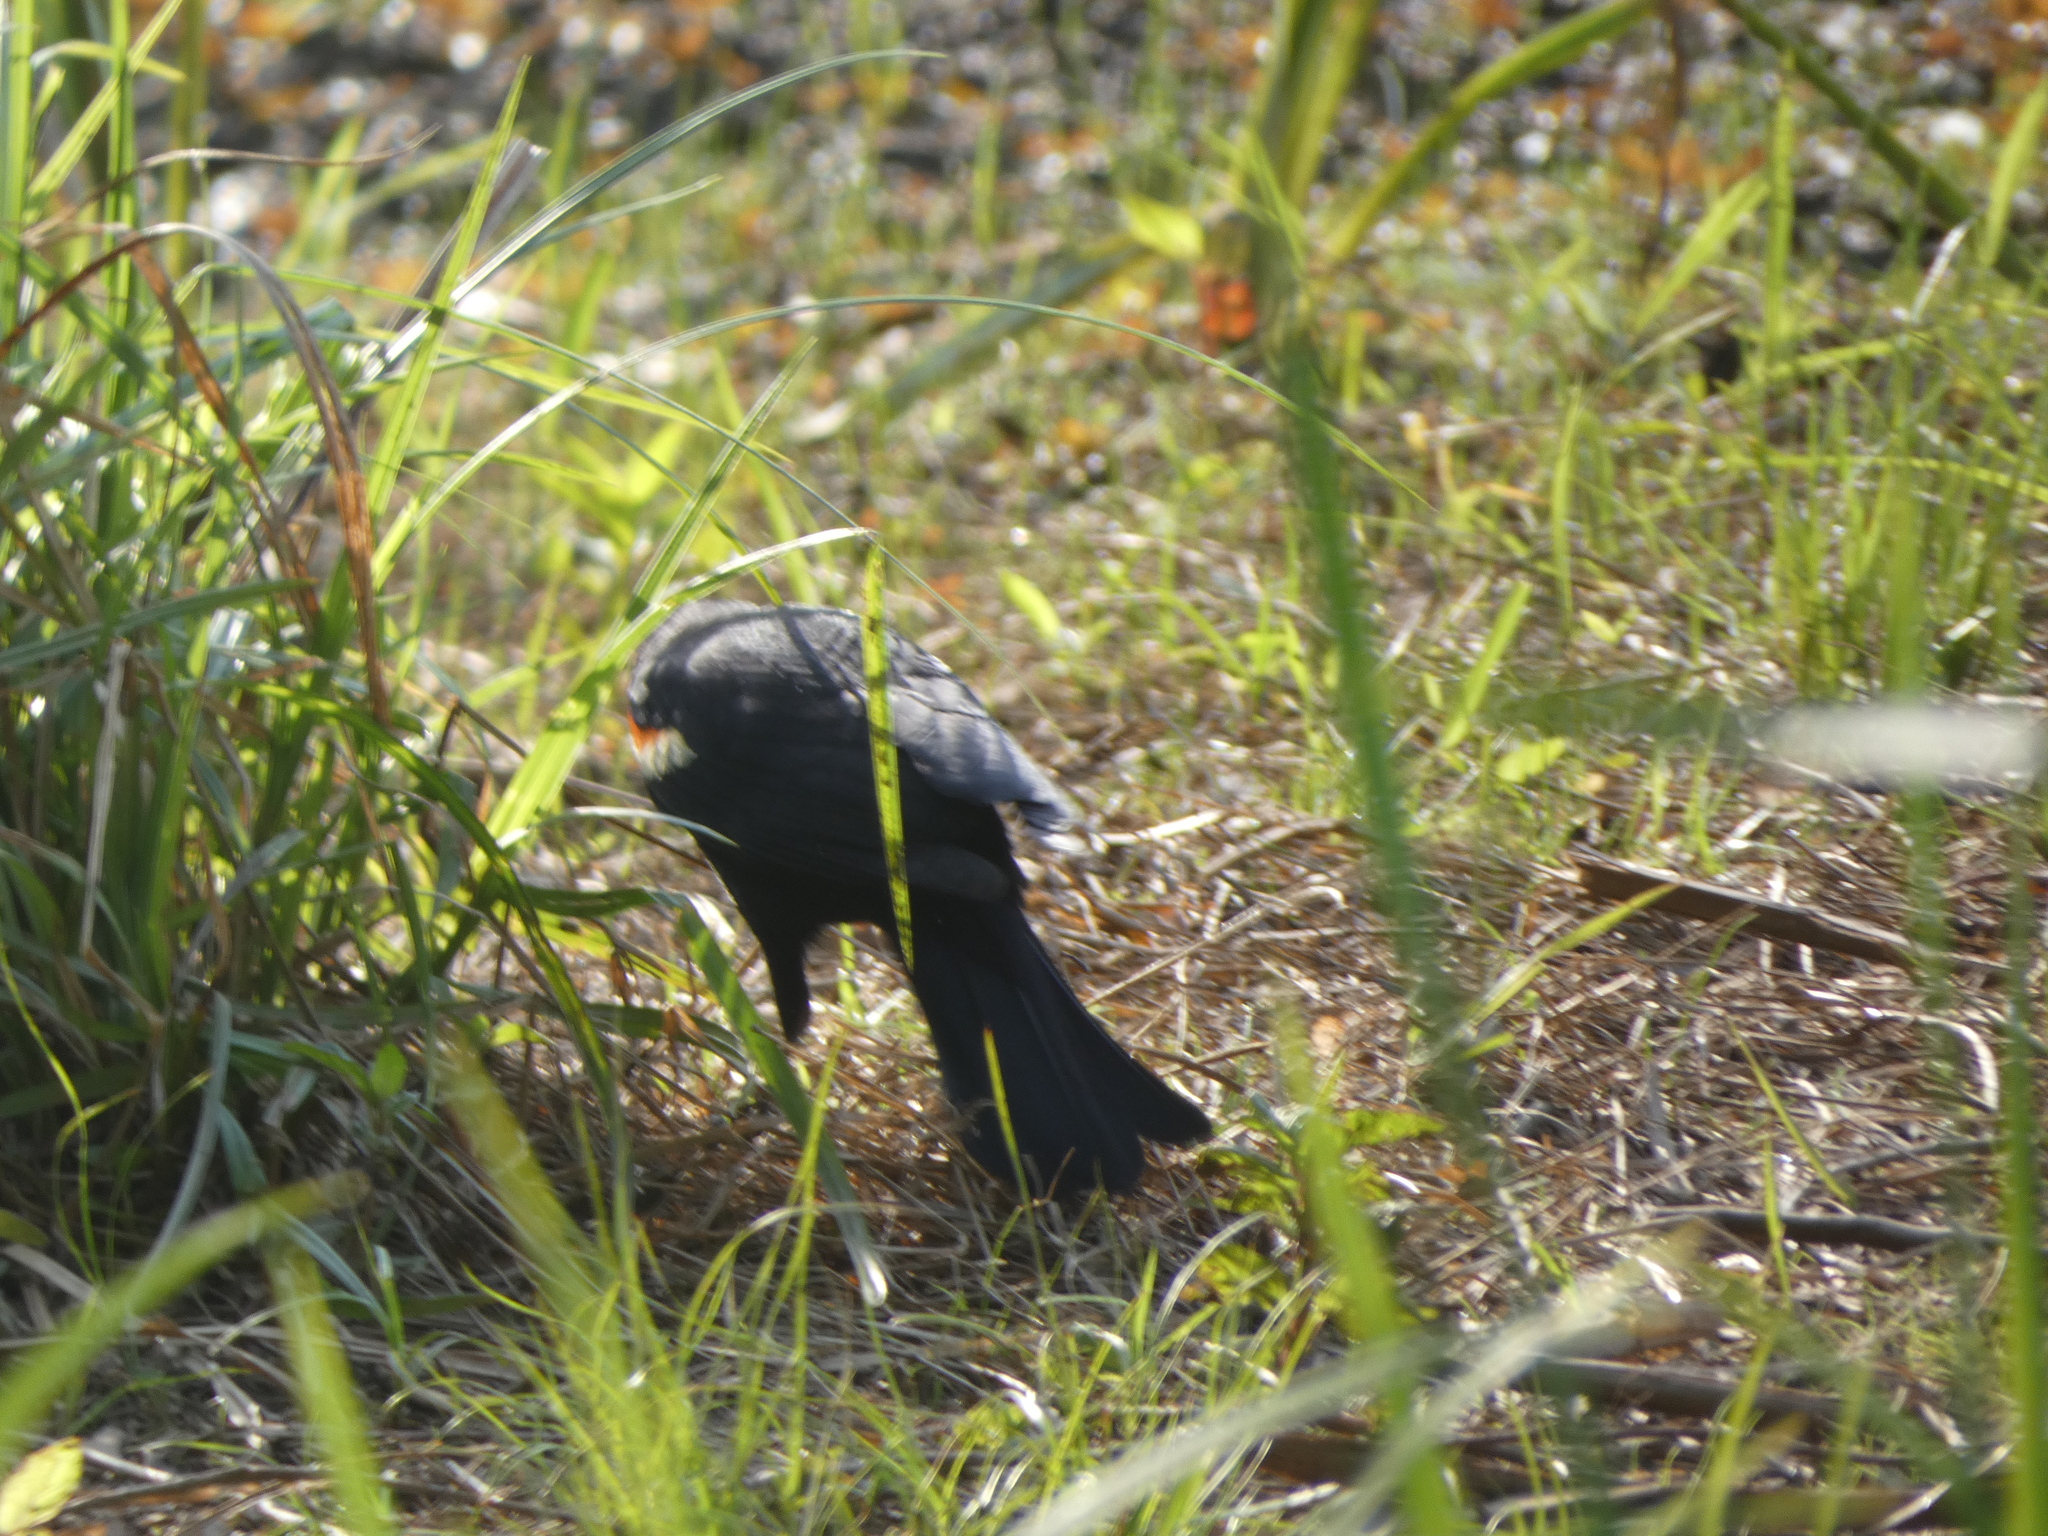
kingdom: Animalia
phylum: Chordata
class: Aves
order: Passeriformes
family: Icteridae
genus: Agelaius
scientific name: Agelaius phoeniceus
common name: Red-winged blackbird
